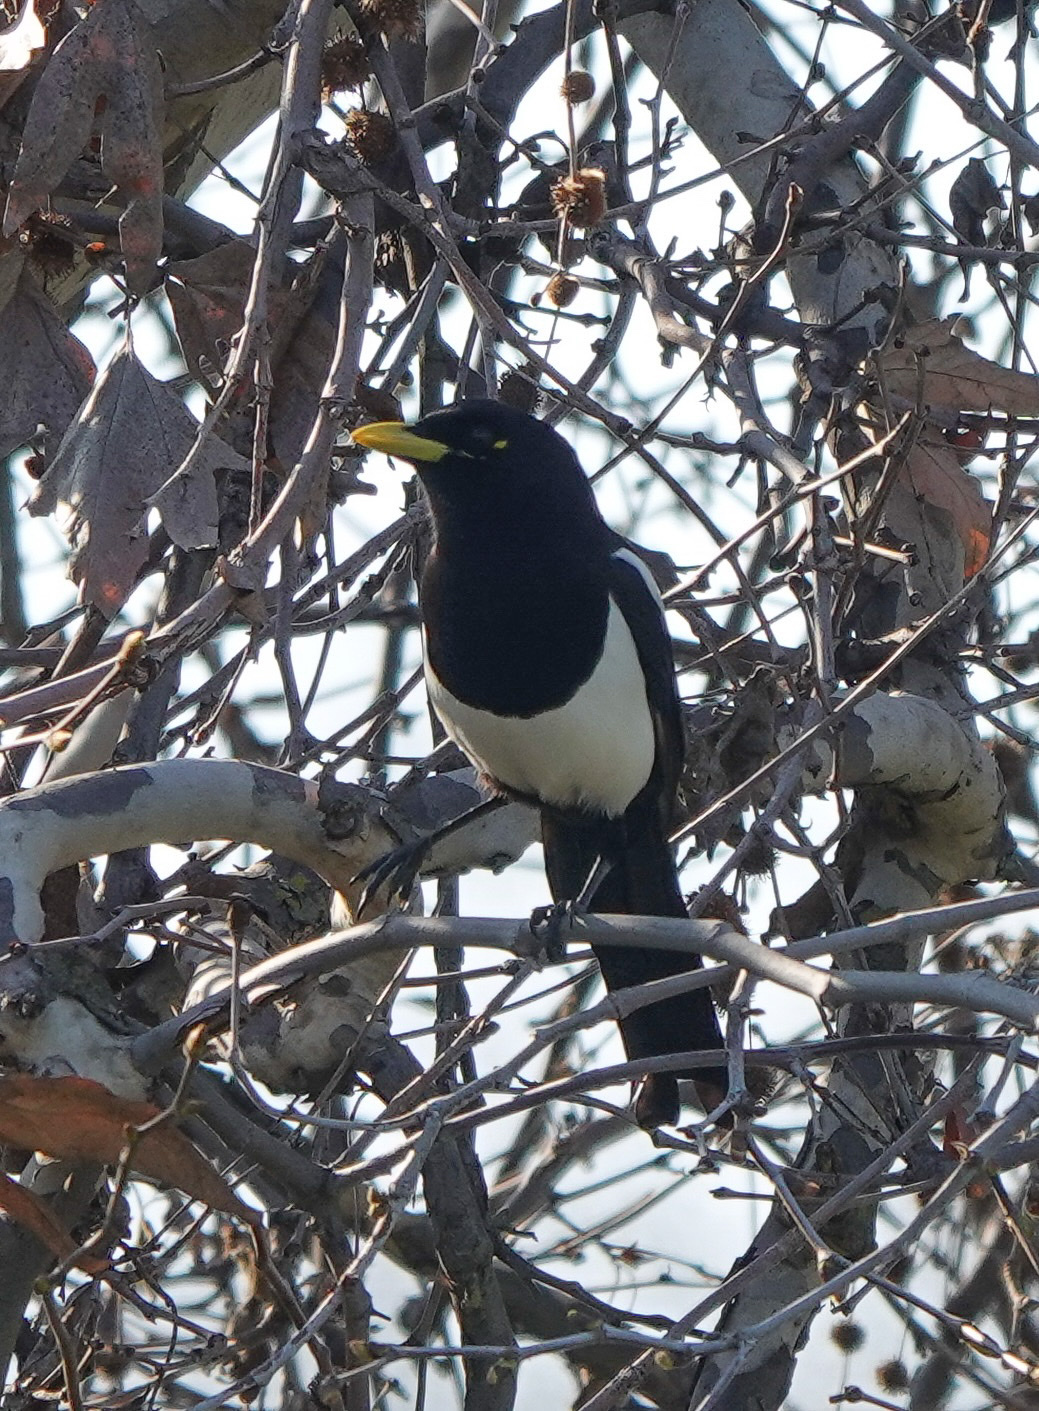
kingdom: Animalia
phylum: Chordata
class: Aves
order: Passeriformes
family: Corvidae
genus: Pica
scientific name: Pica nuttalli
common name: Yellow-billed magpie
